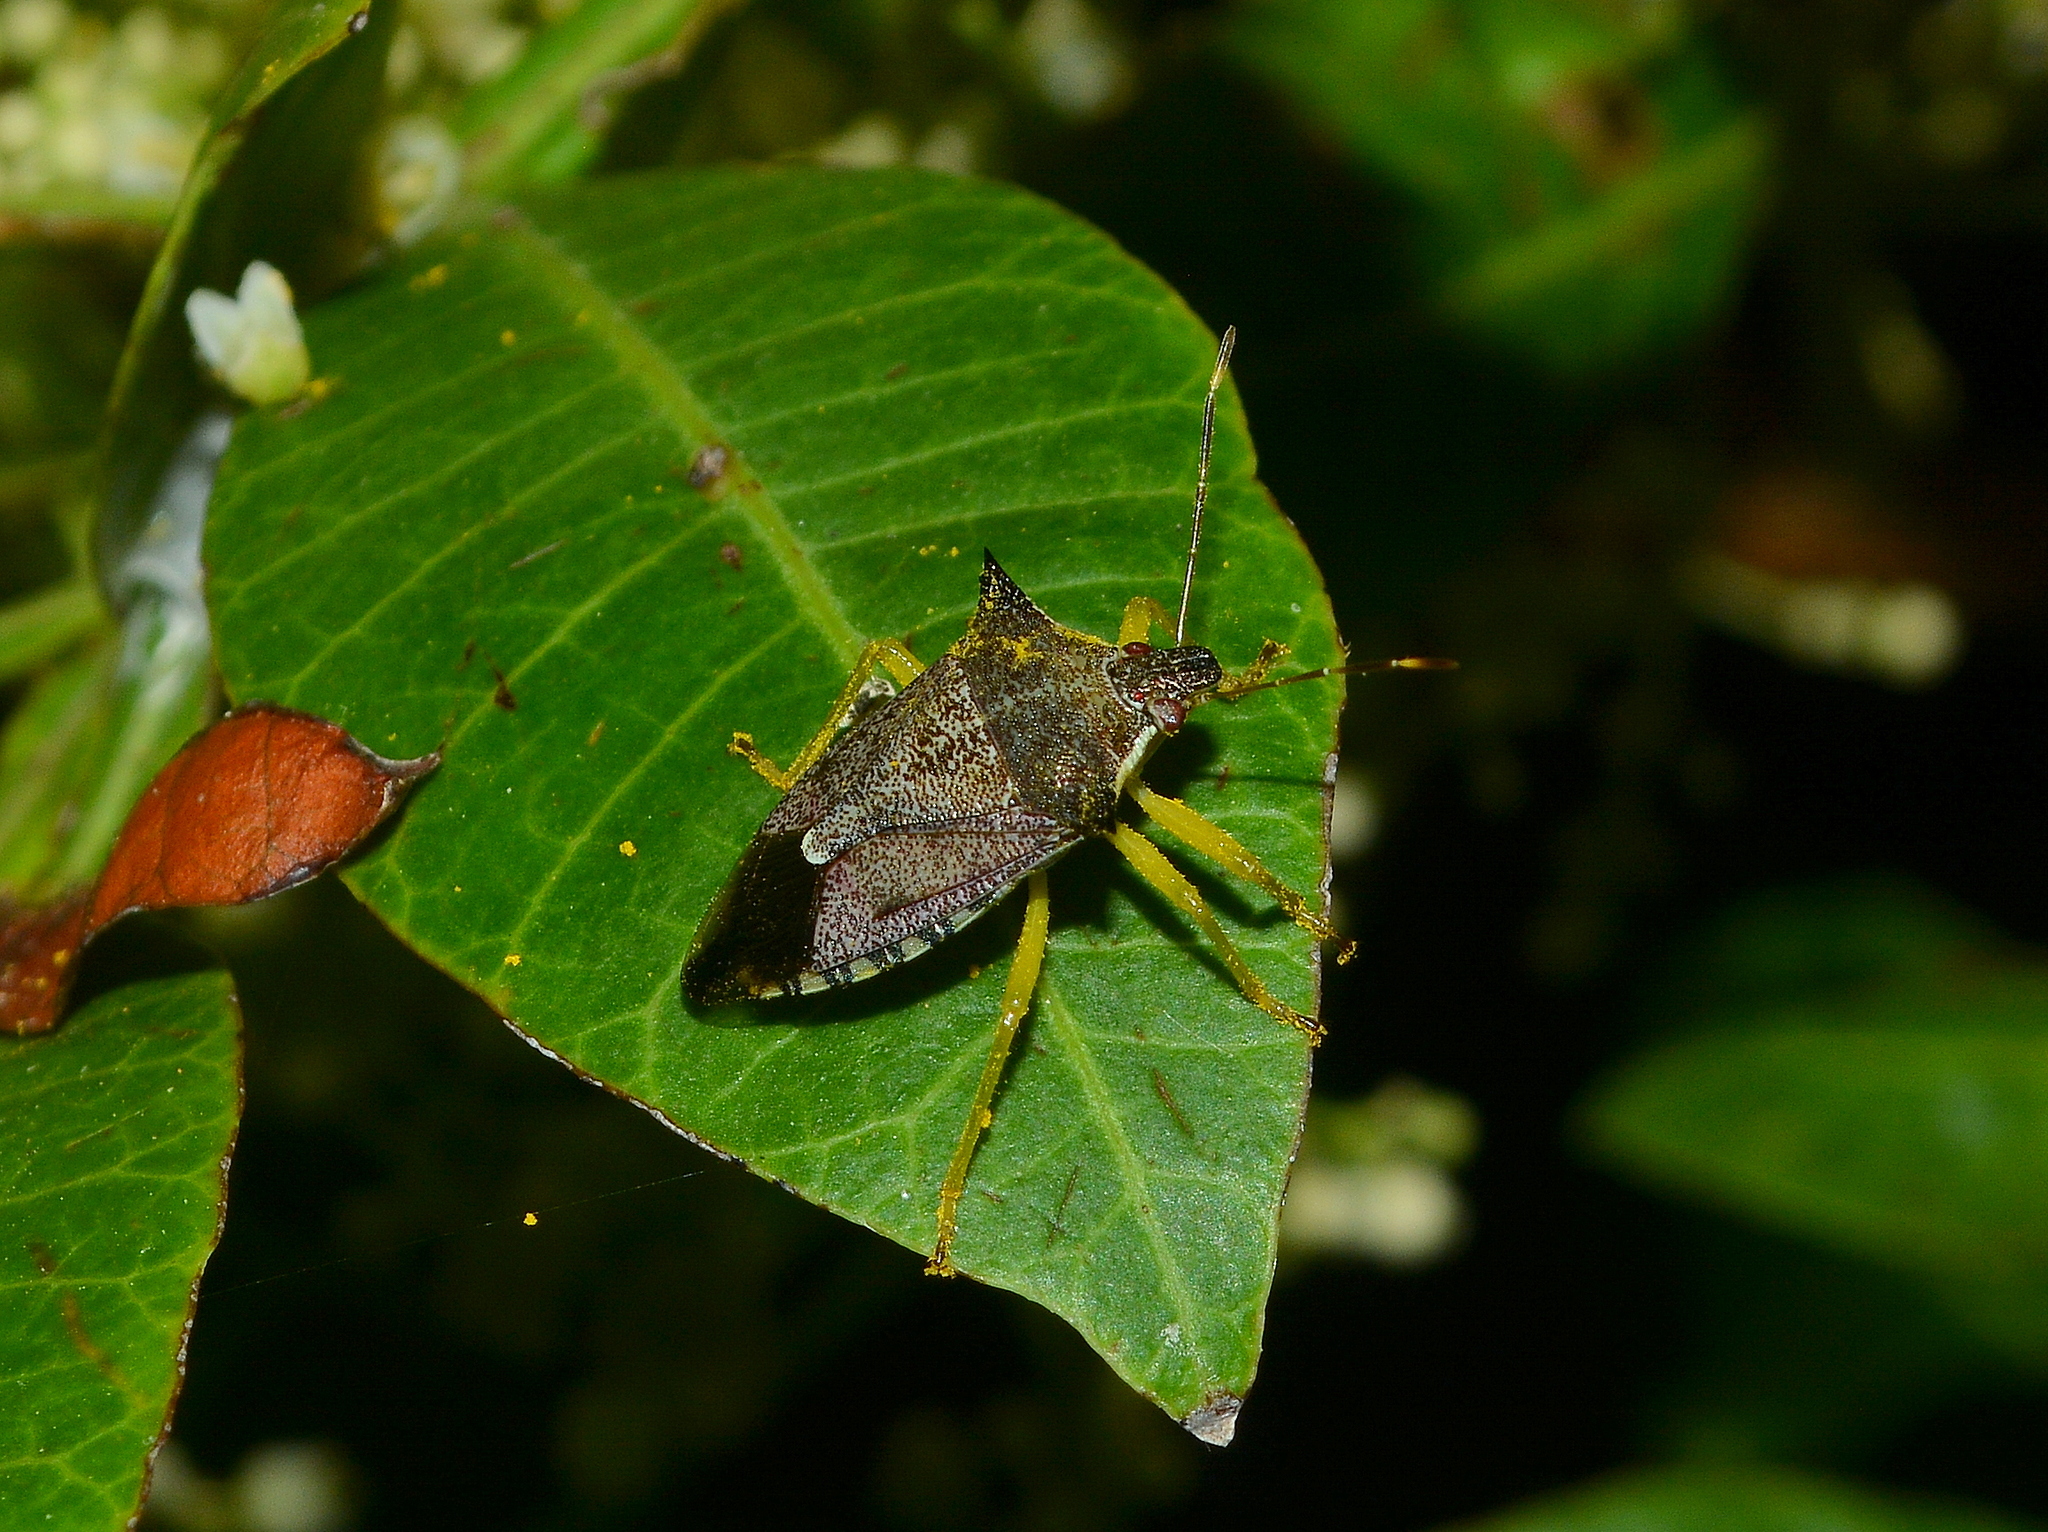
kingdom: Animalia
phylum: Arthropoda
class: Insecta
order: Hemiptera
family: Pentatomidae
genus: Podisus
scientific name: Podisus nigrispinus
